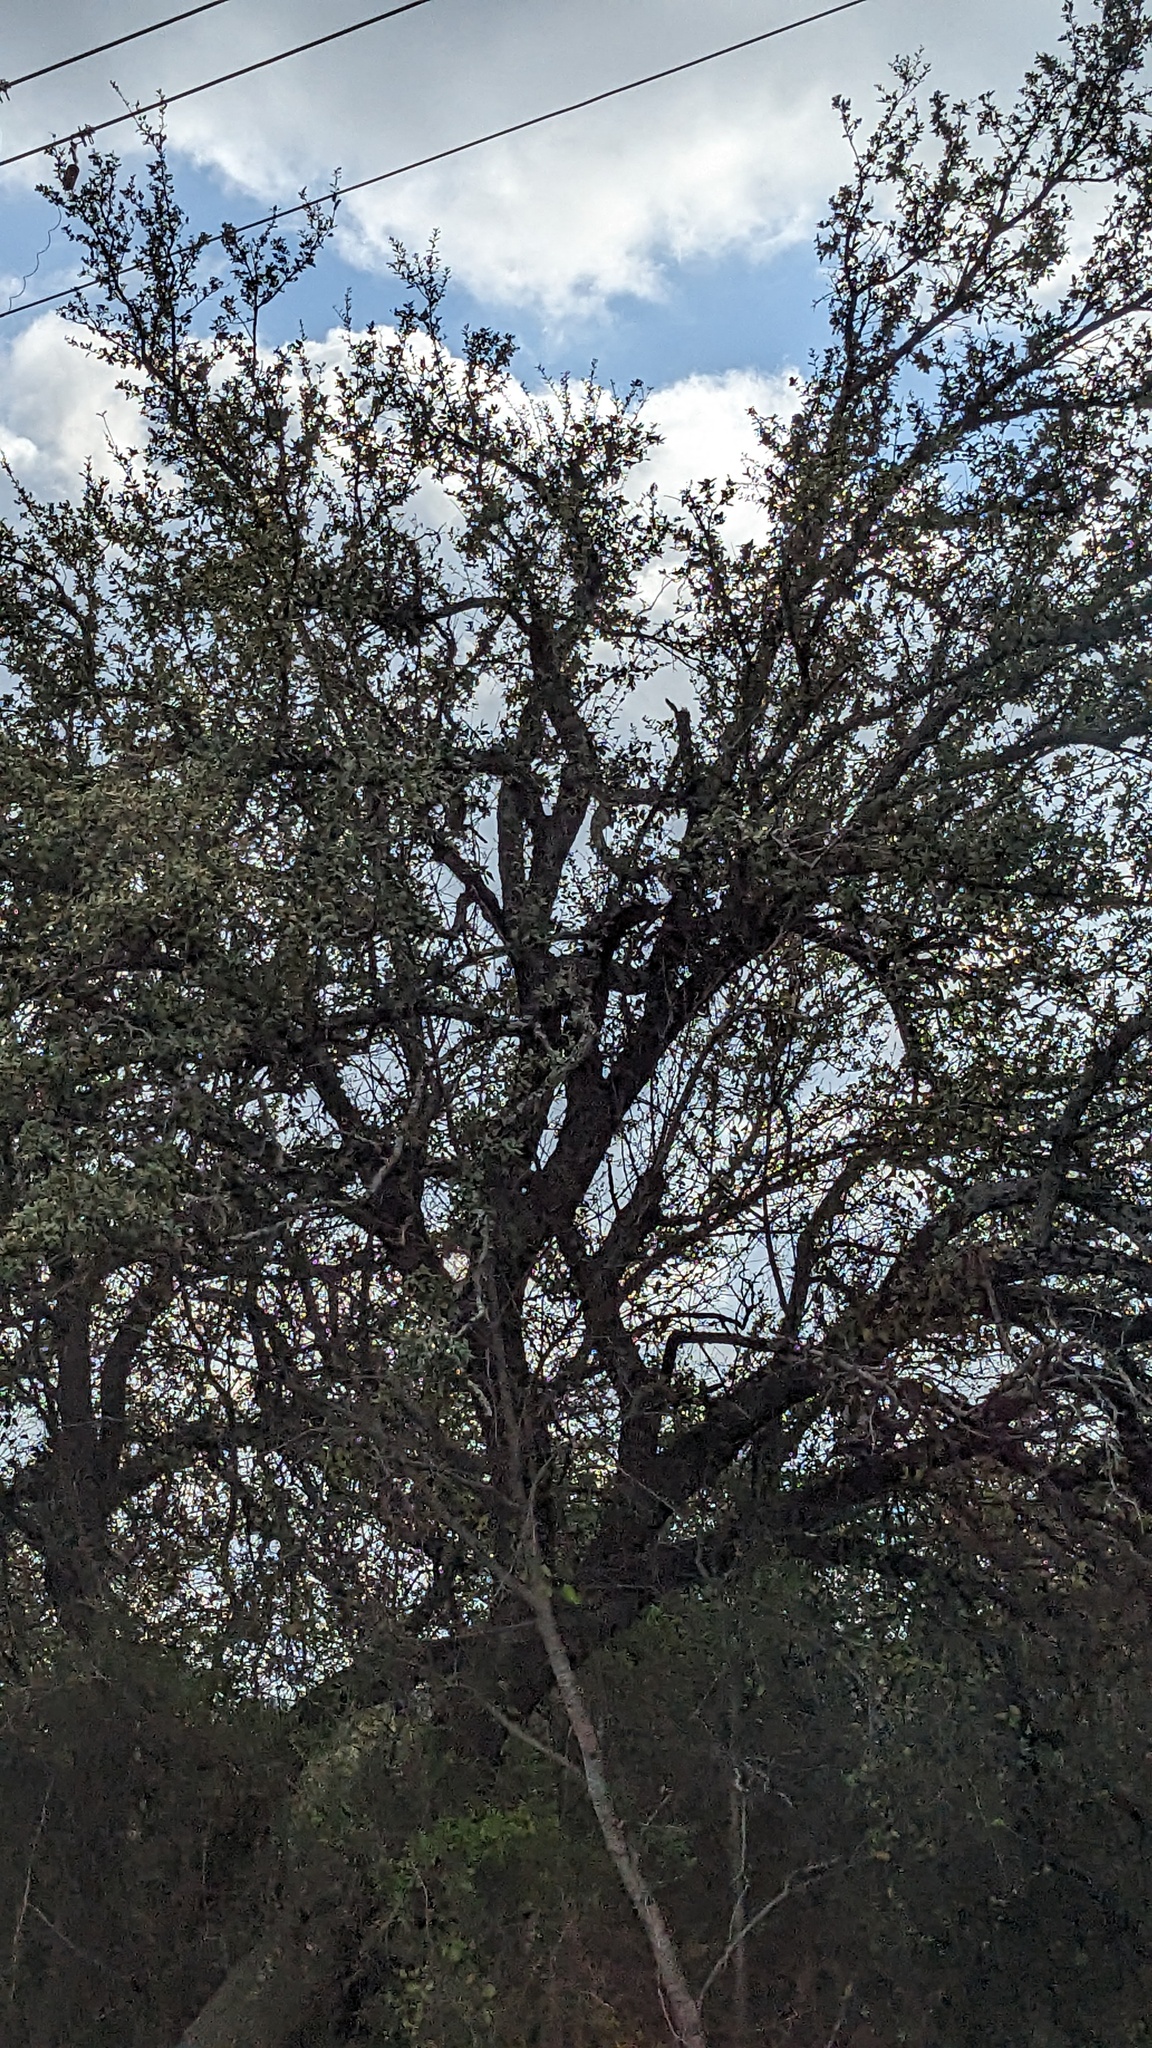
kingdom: Plantae
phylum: Tracheophyta
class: Magnoliopsida
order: Fagales
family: Fagaceae
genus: Quercus
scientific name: Quercus fusiformis
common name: Texas live oak
